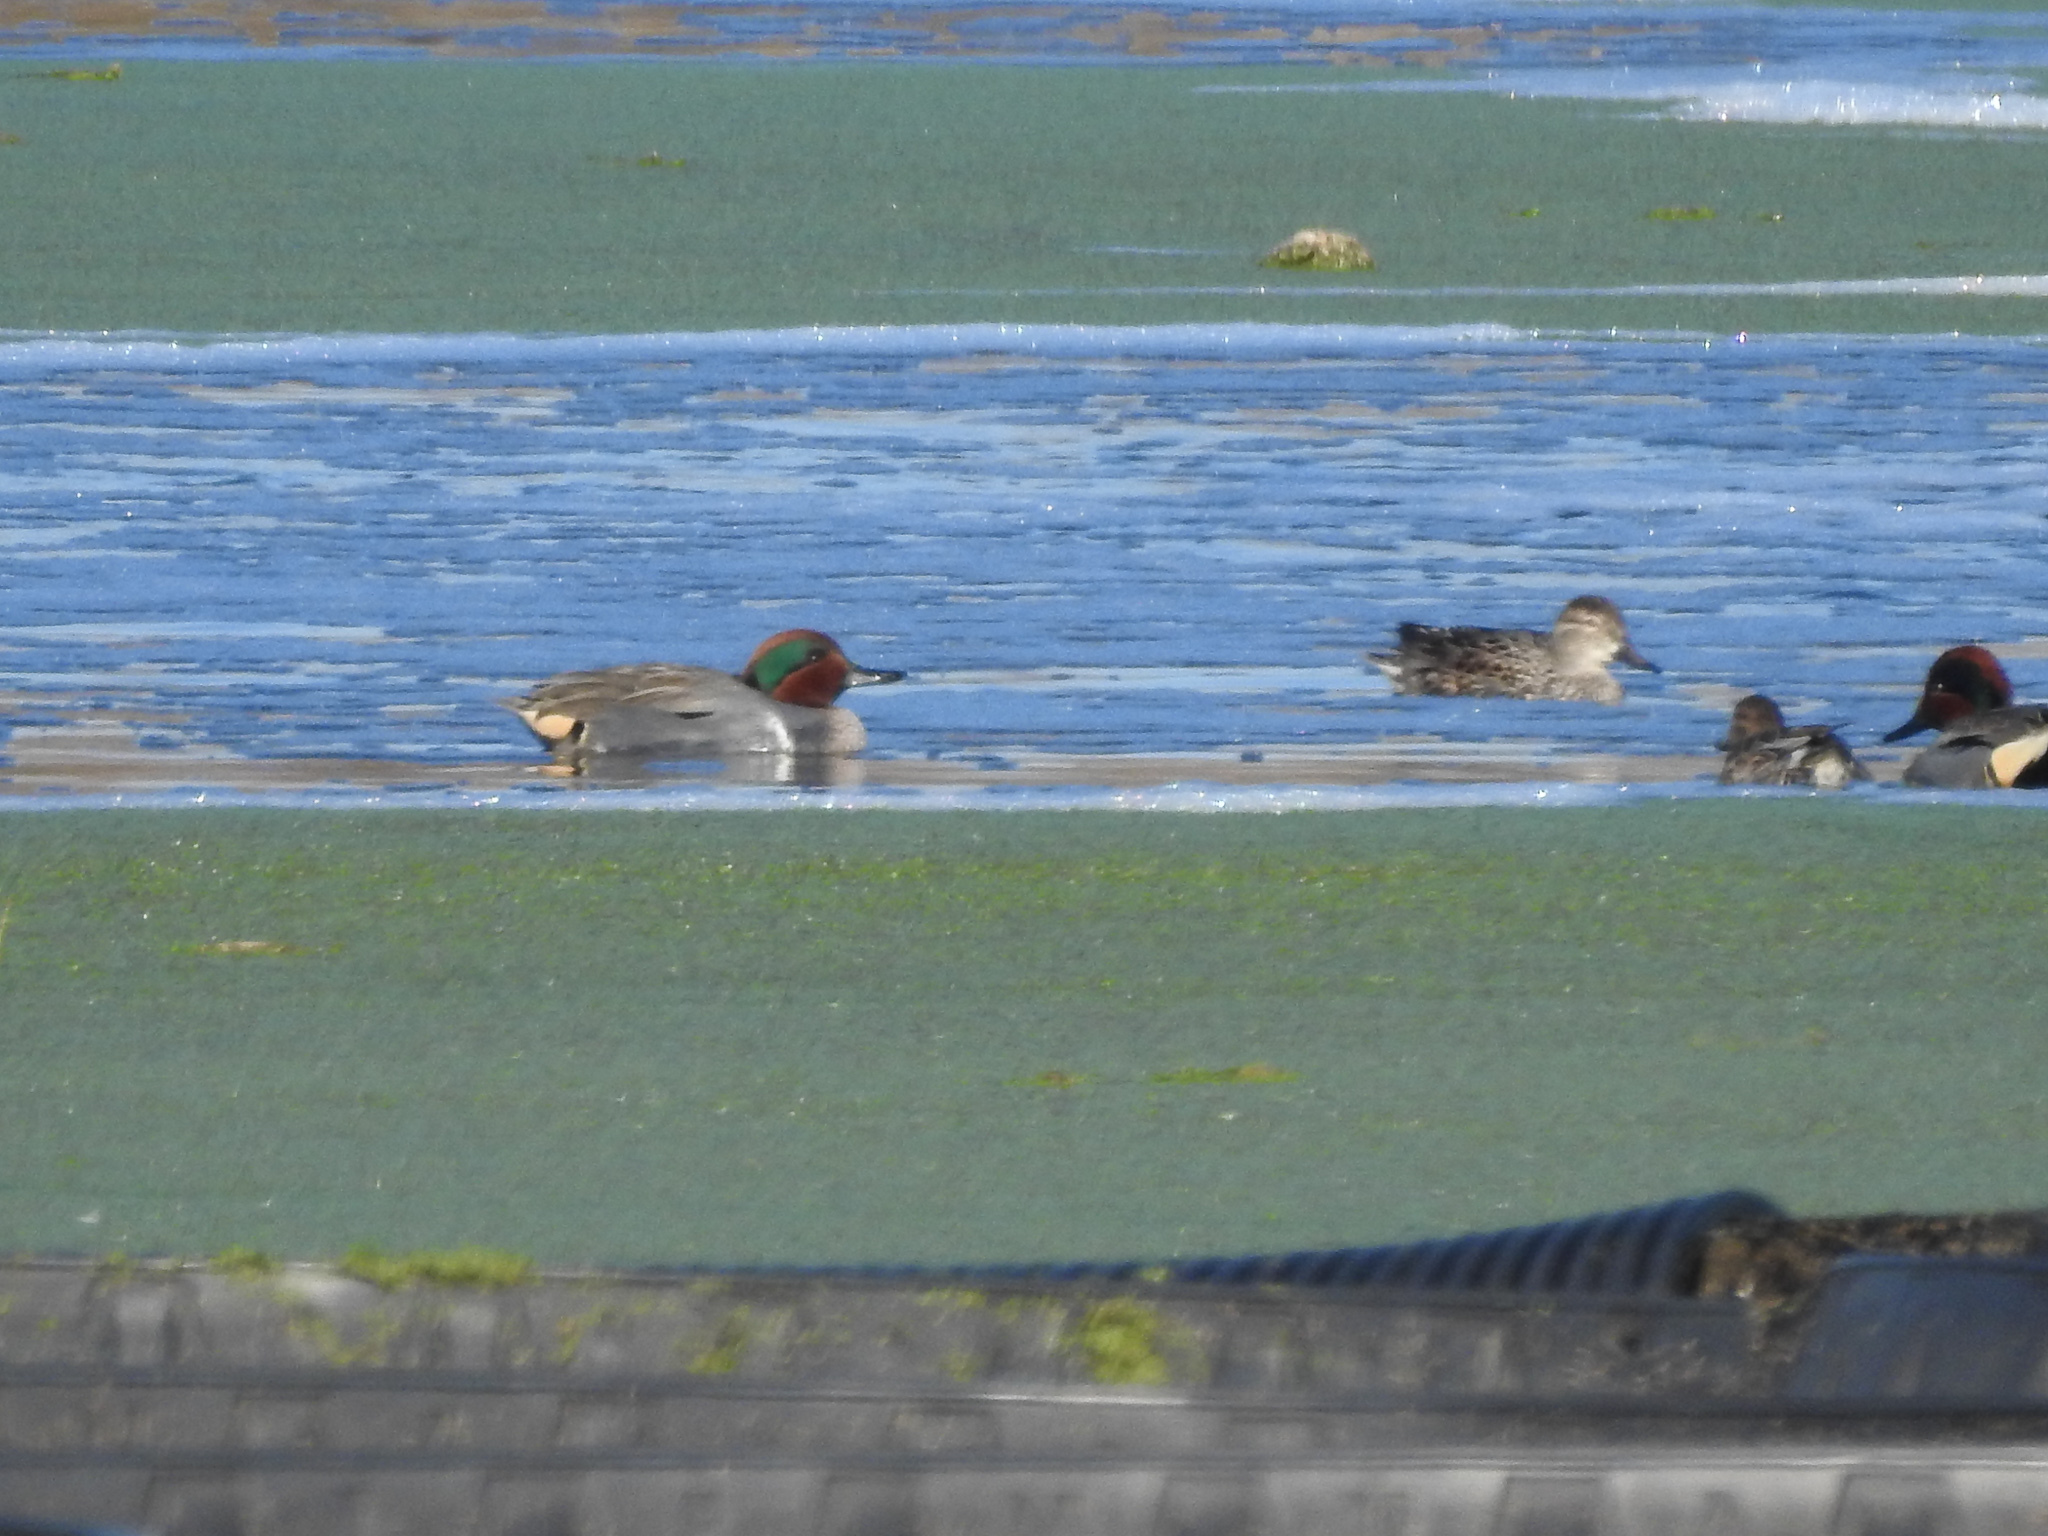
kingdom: Animalia
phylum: Chordata
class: Aves
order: Anseriformes
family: Anatidae
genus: Anas
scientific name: Anas crecca
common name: Eurasian teal
